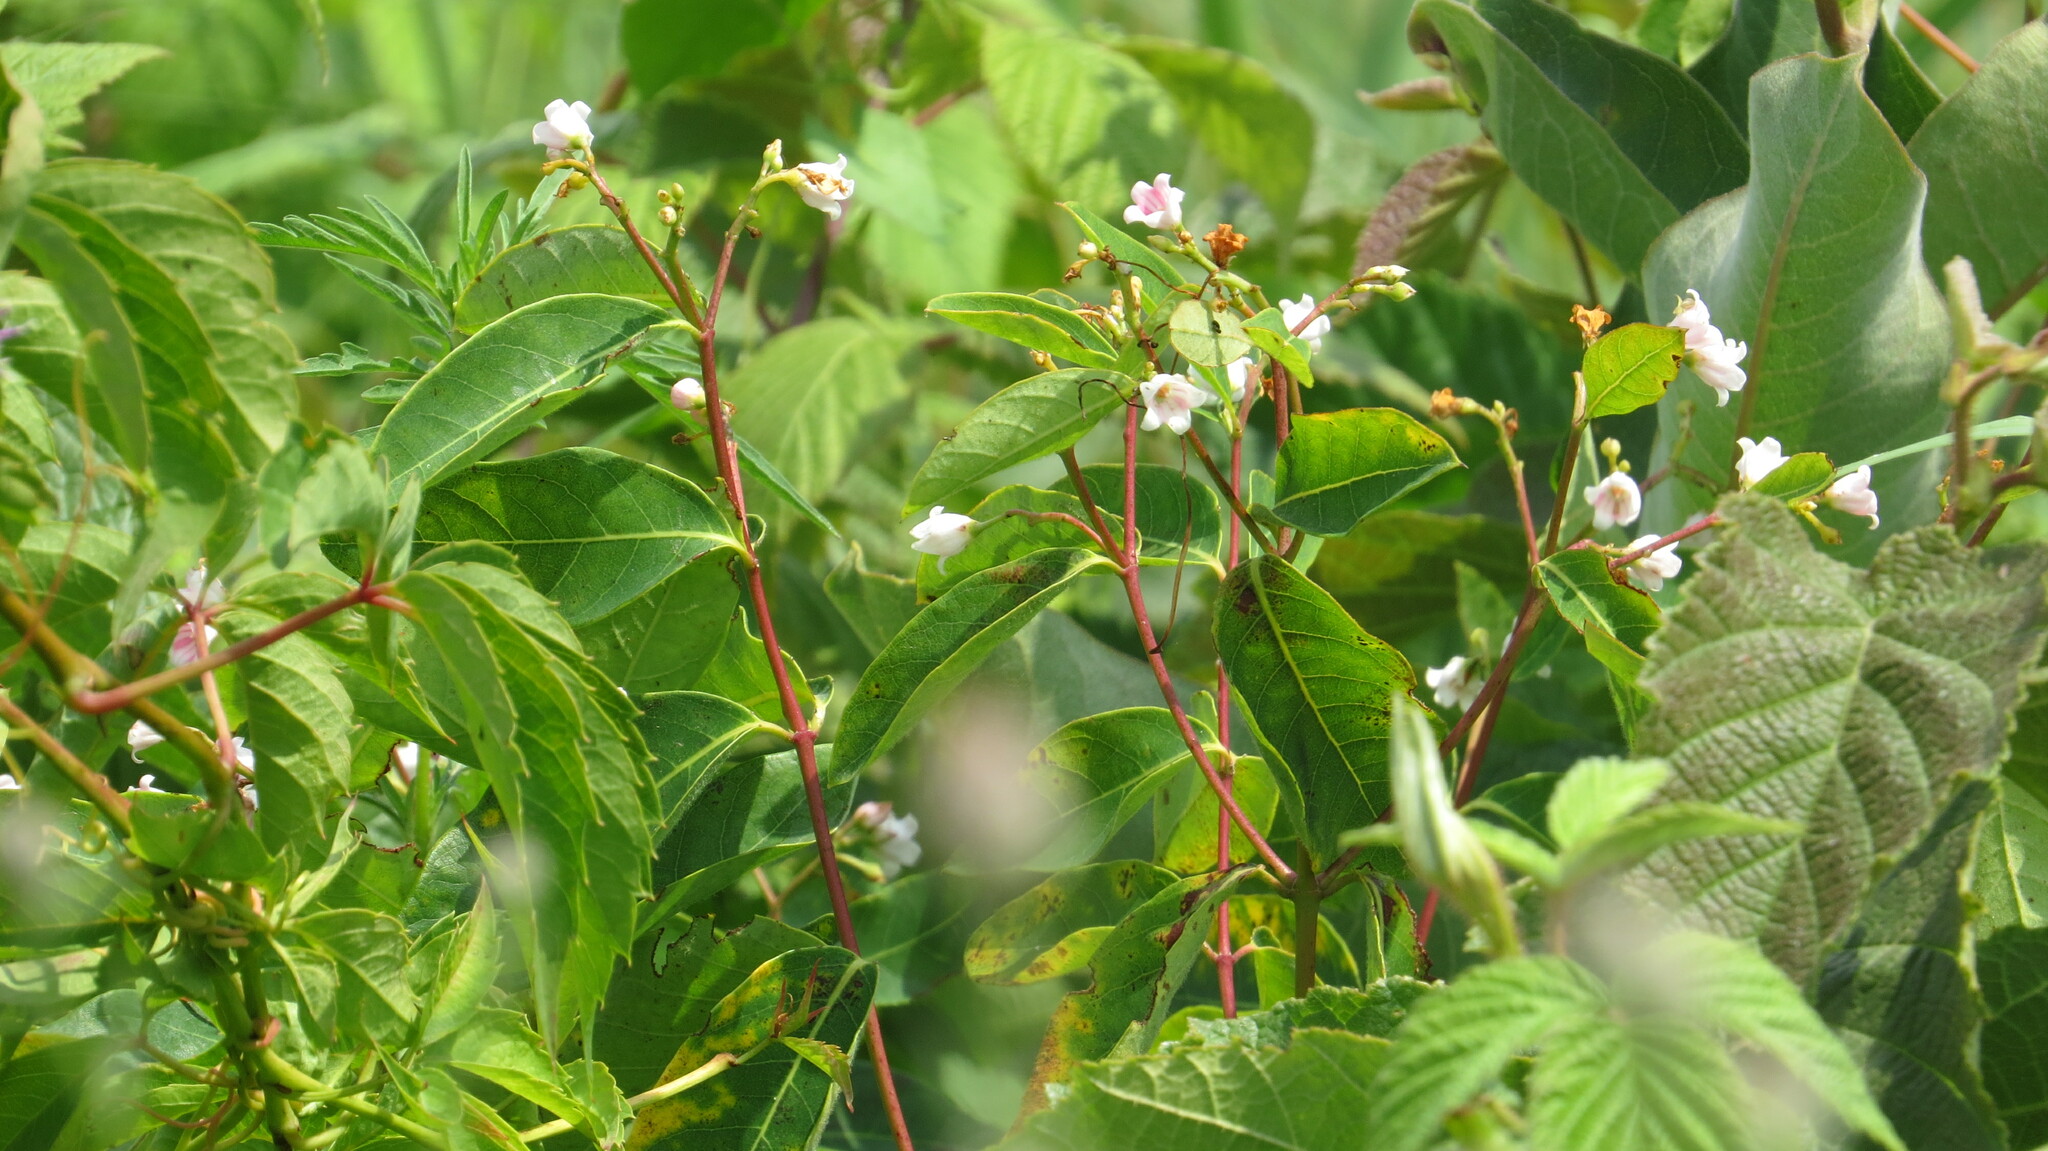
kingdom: Plantae
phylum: Tracheophyta
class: Magnoliopsida
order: Gentianales
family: Apocynaceae
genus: Apocynum
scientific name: Apocynum androsaemifolium
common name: Spreading dogbane
